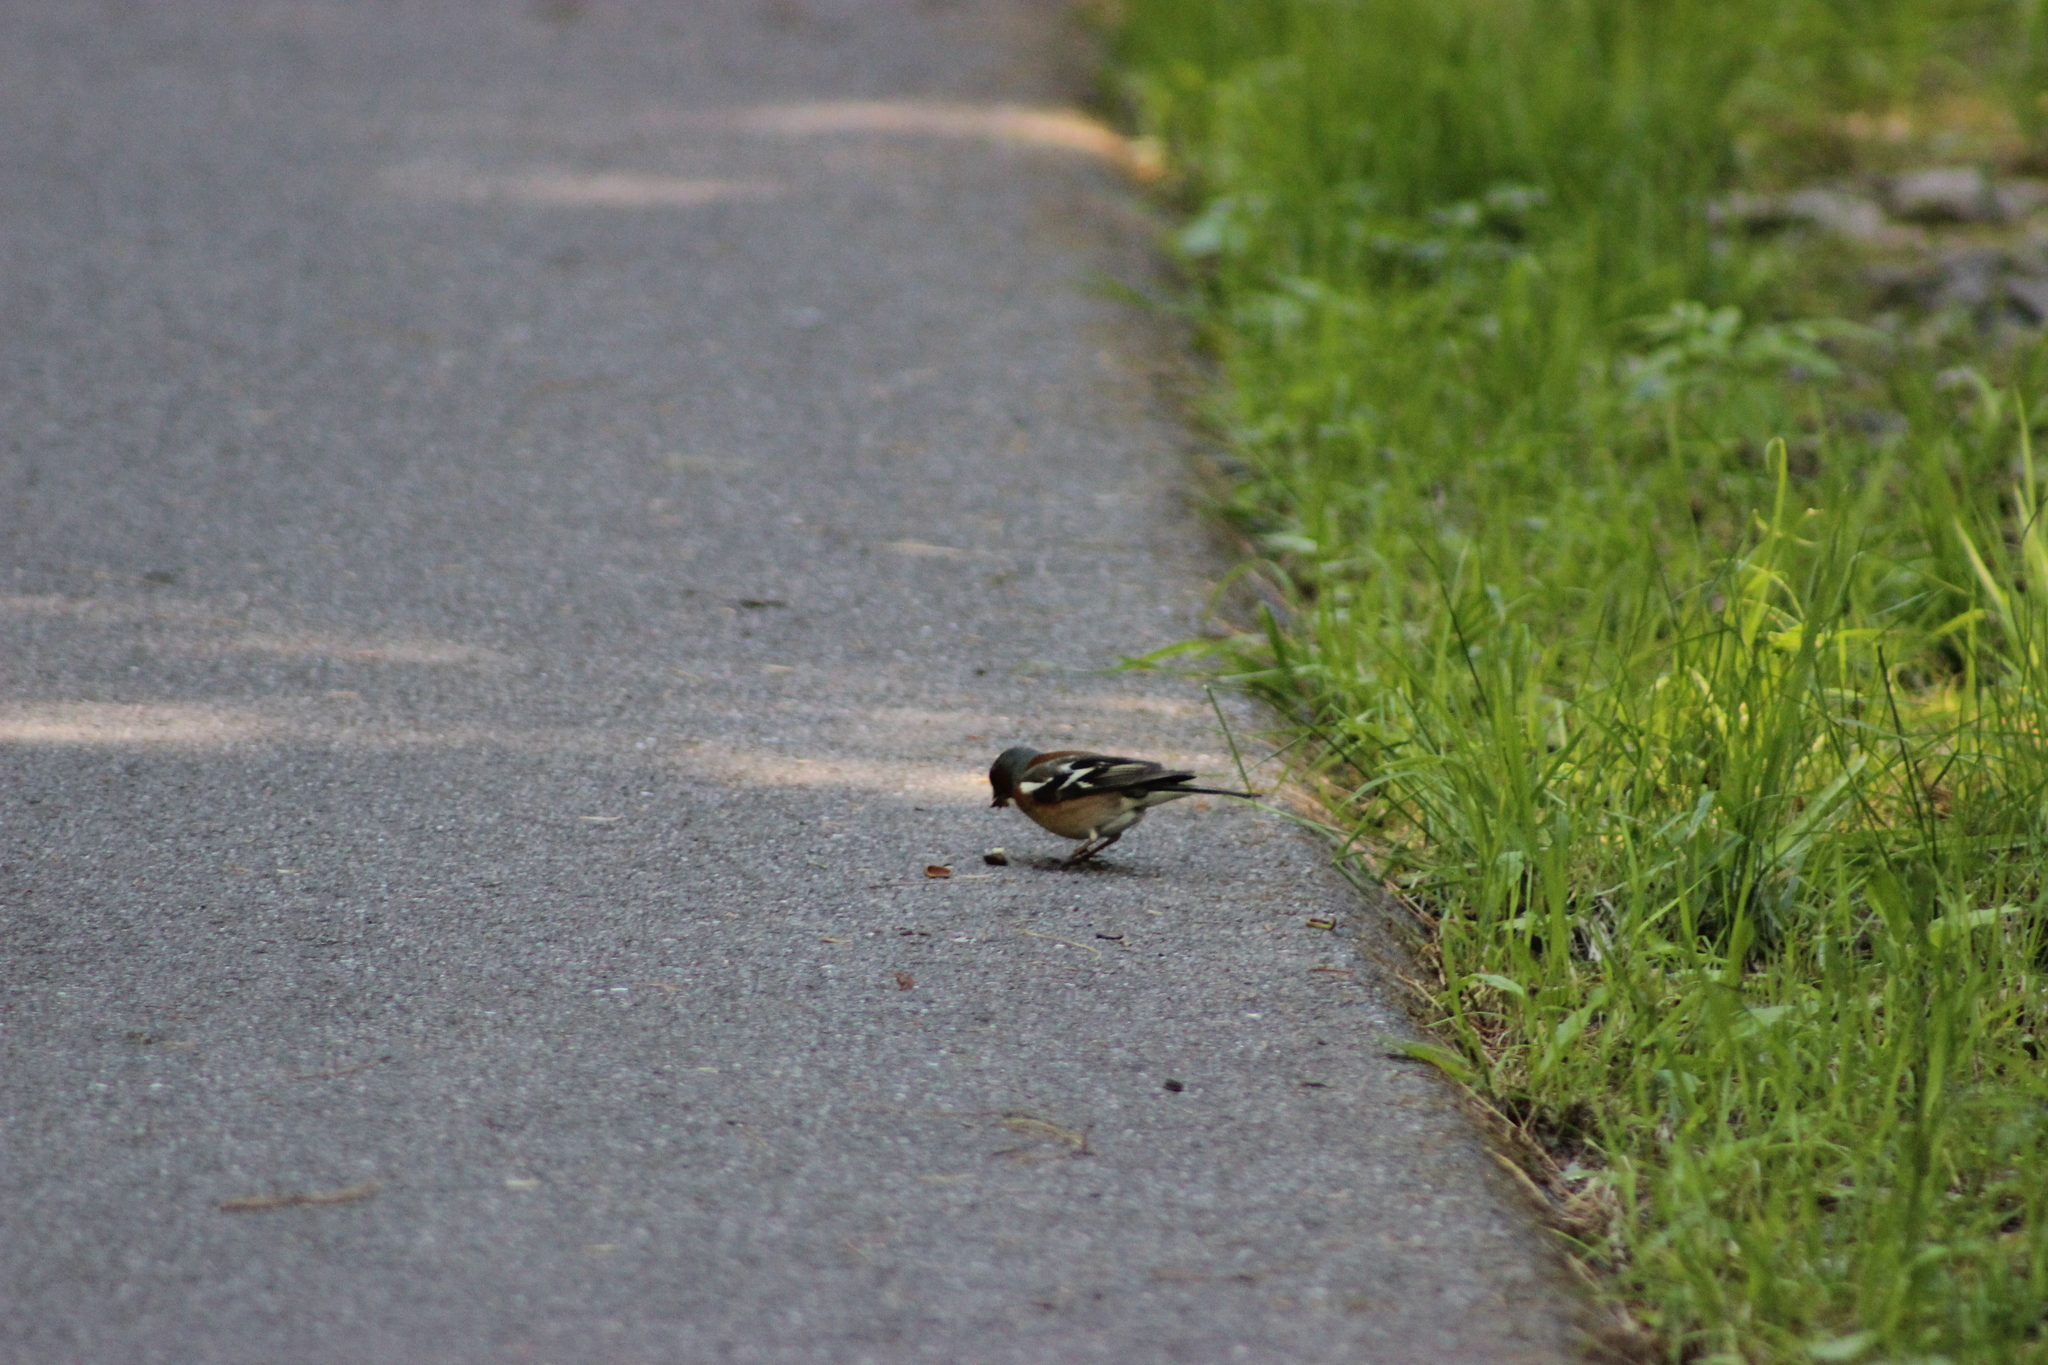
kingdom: Animalia
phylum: Chordata
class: Aves
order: Passeriformes
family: Fringillidae
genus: Fringilla
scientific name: Fringilla coelebs
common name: Common chaffinch
